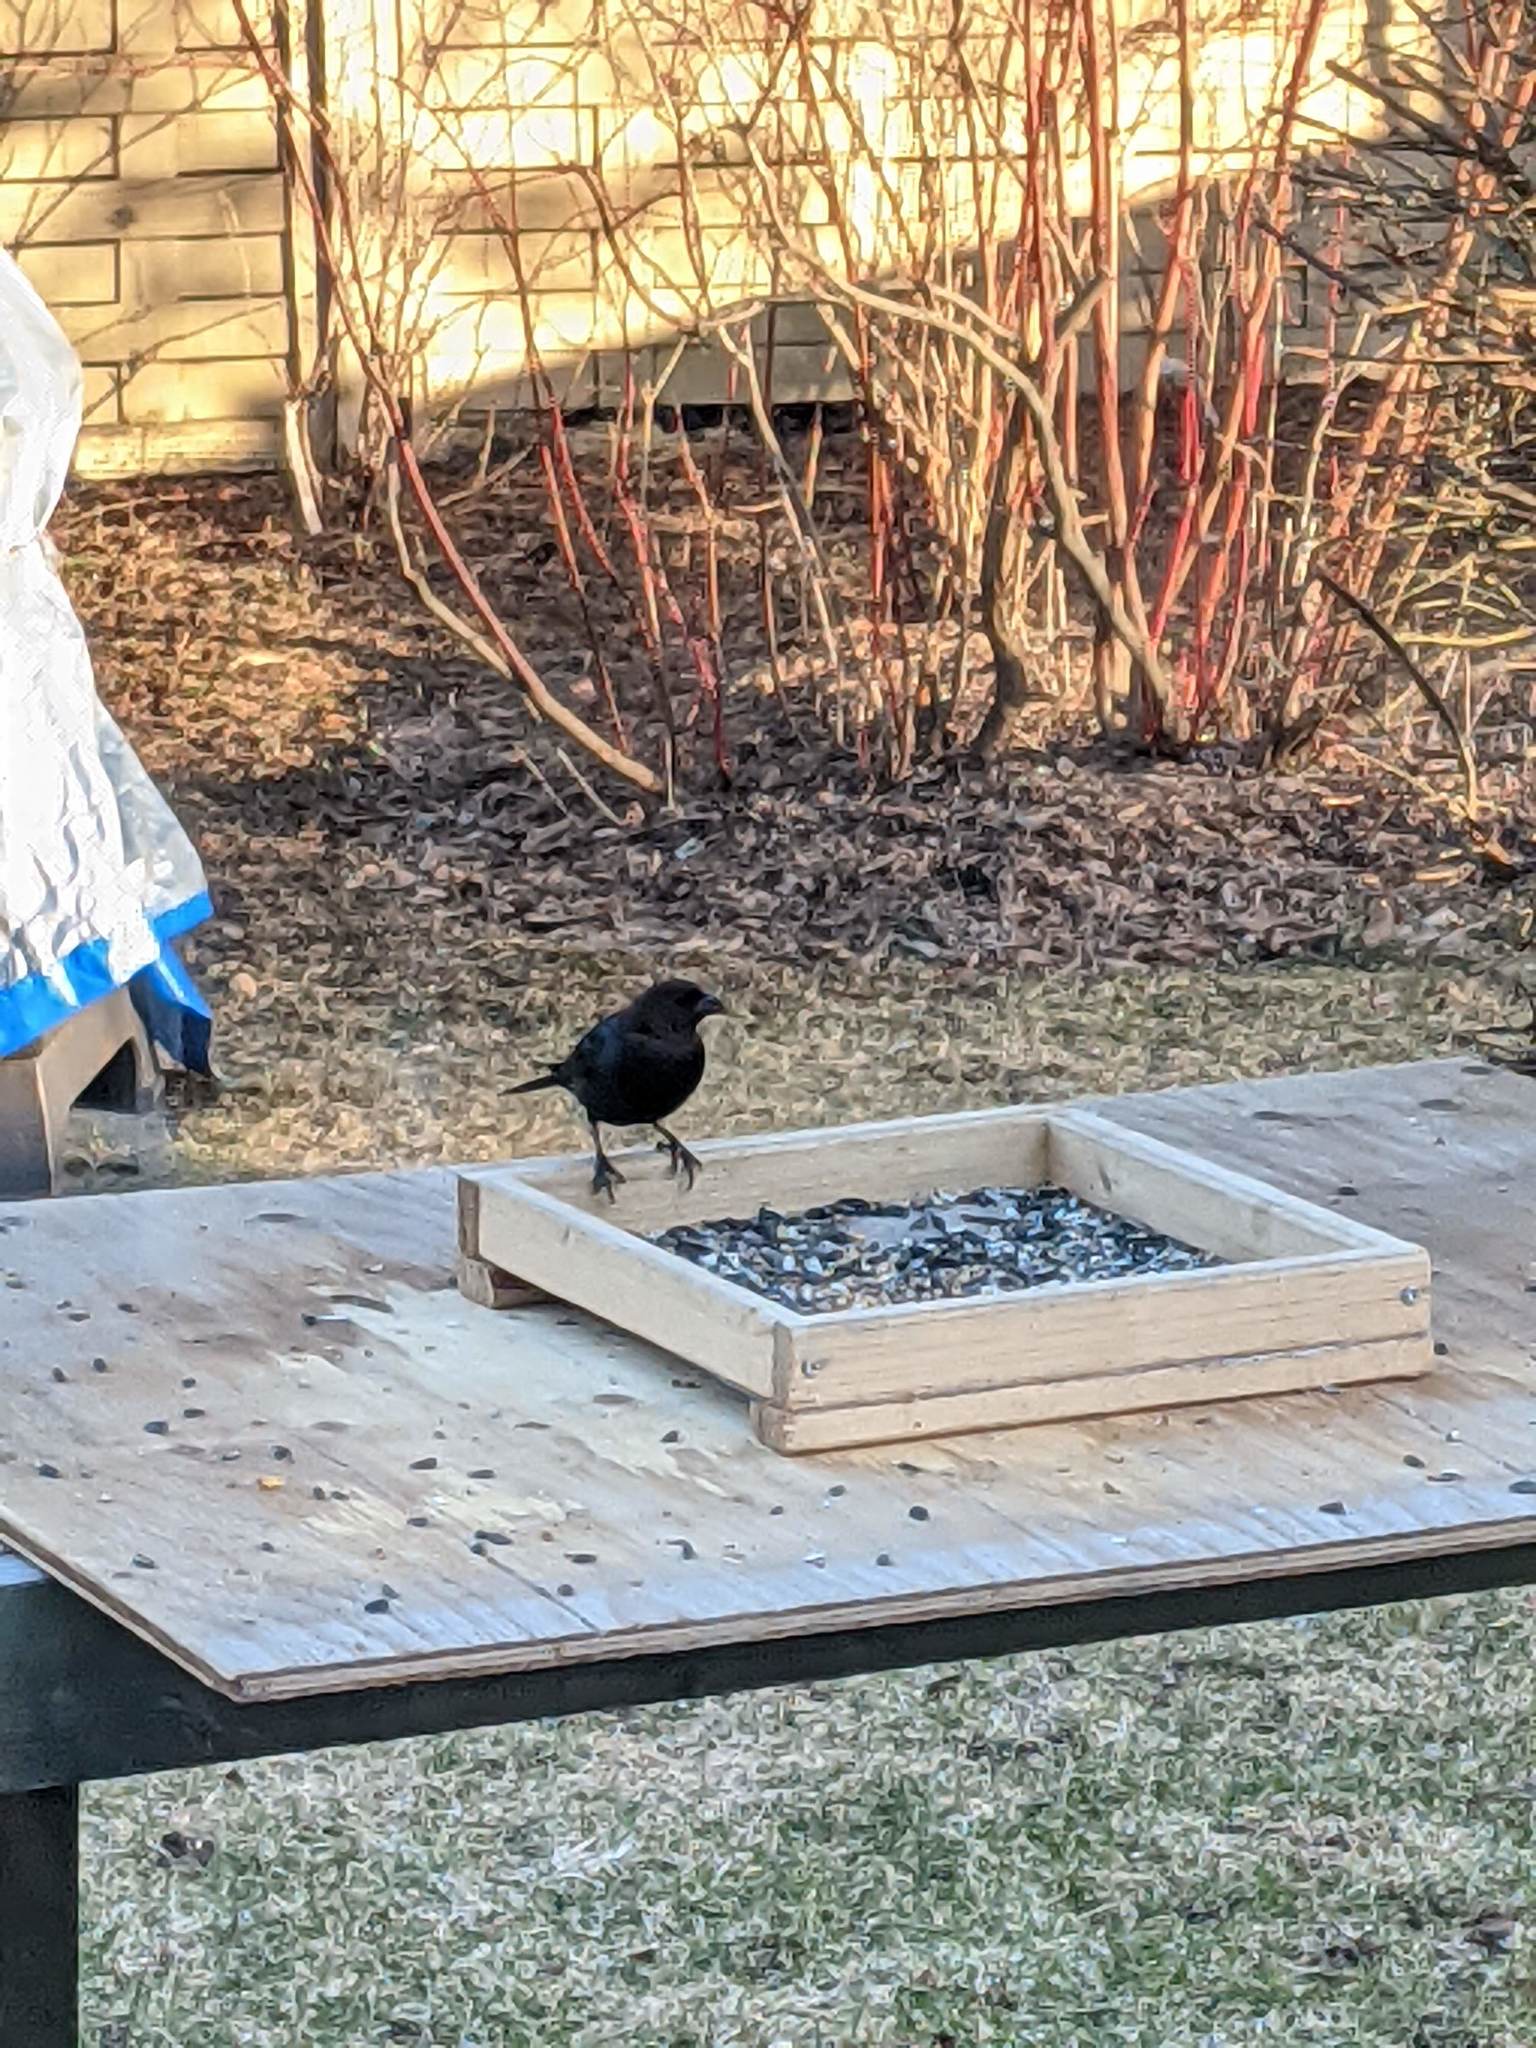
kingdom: Animalia
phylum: Chordata
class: Aves
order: Passeriformes
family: Icteridae
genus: Molothrus
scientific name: Molothrus ater
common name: Brown-headed cowbird
